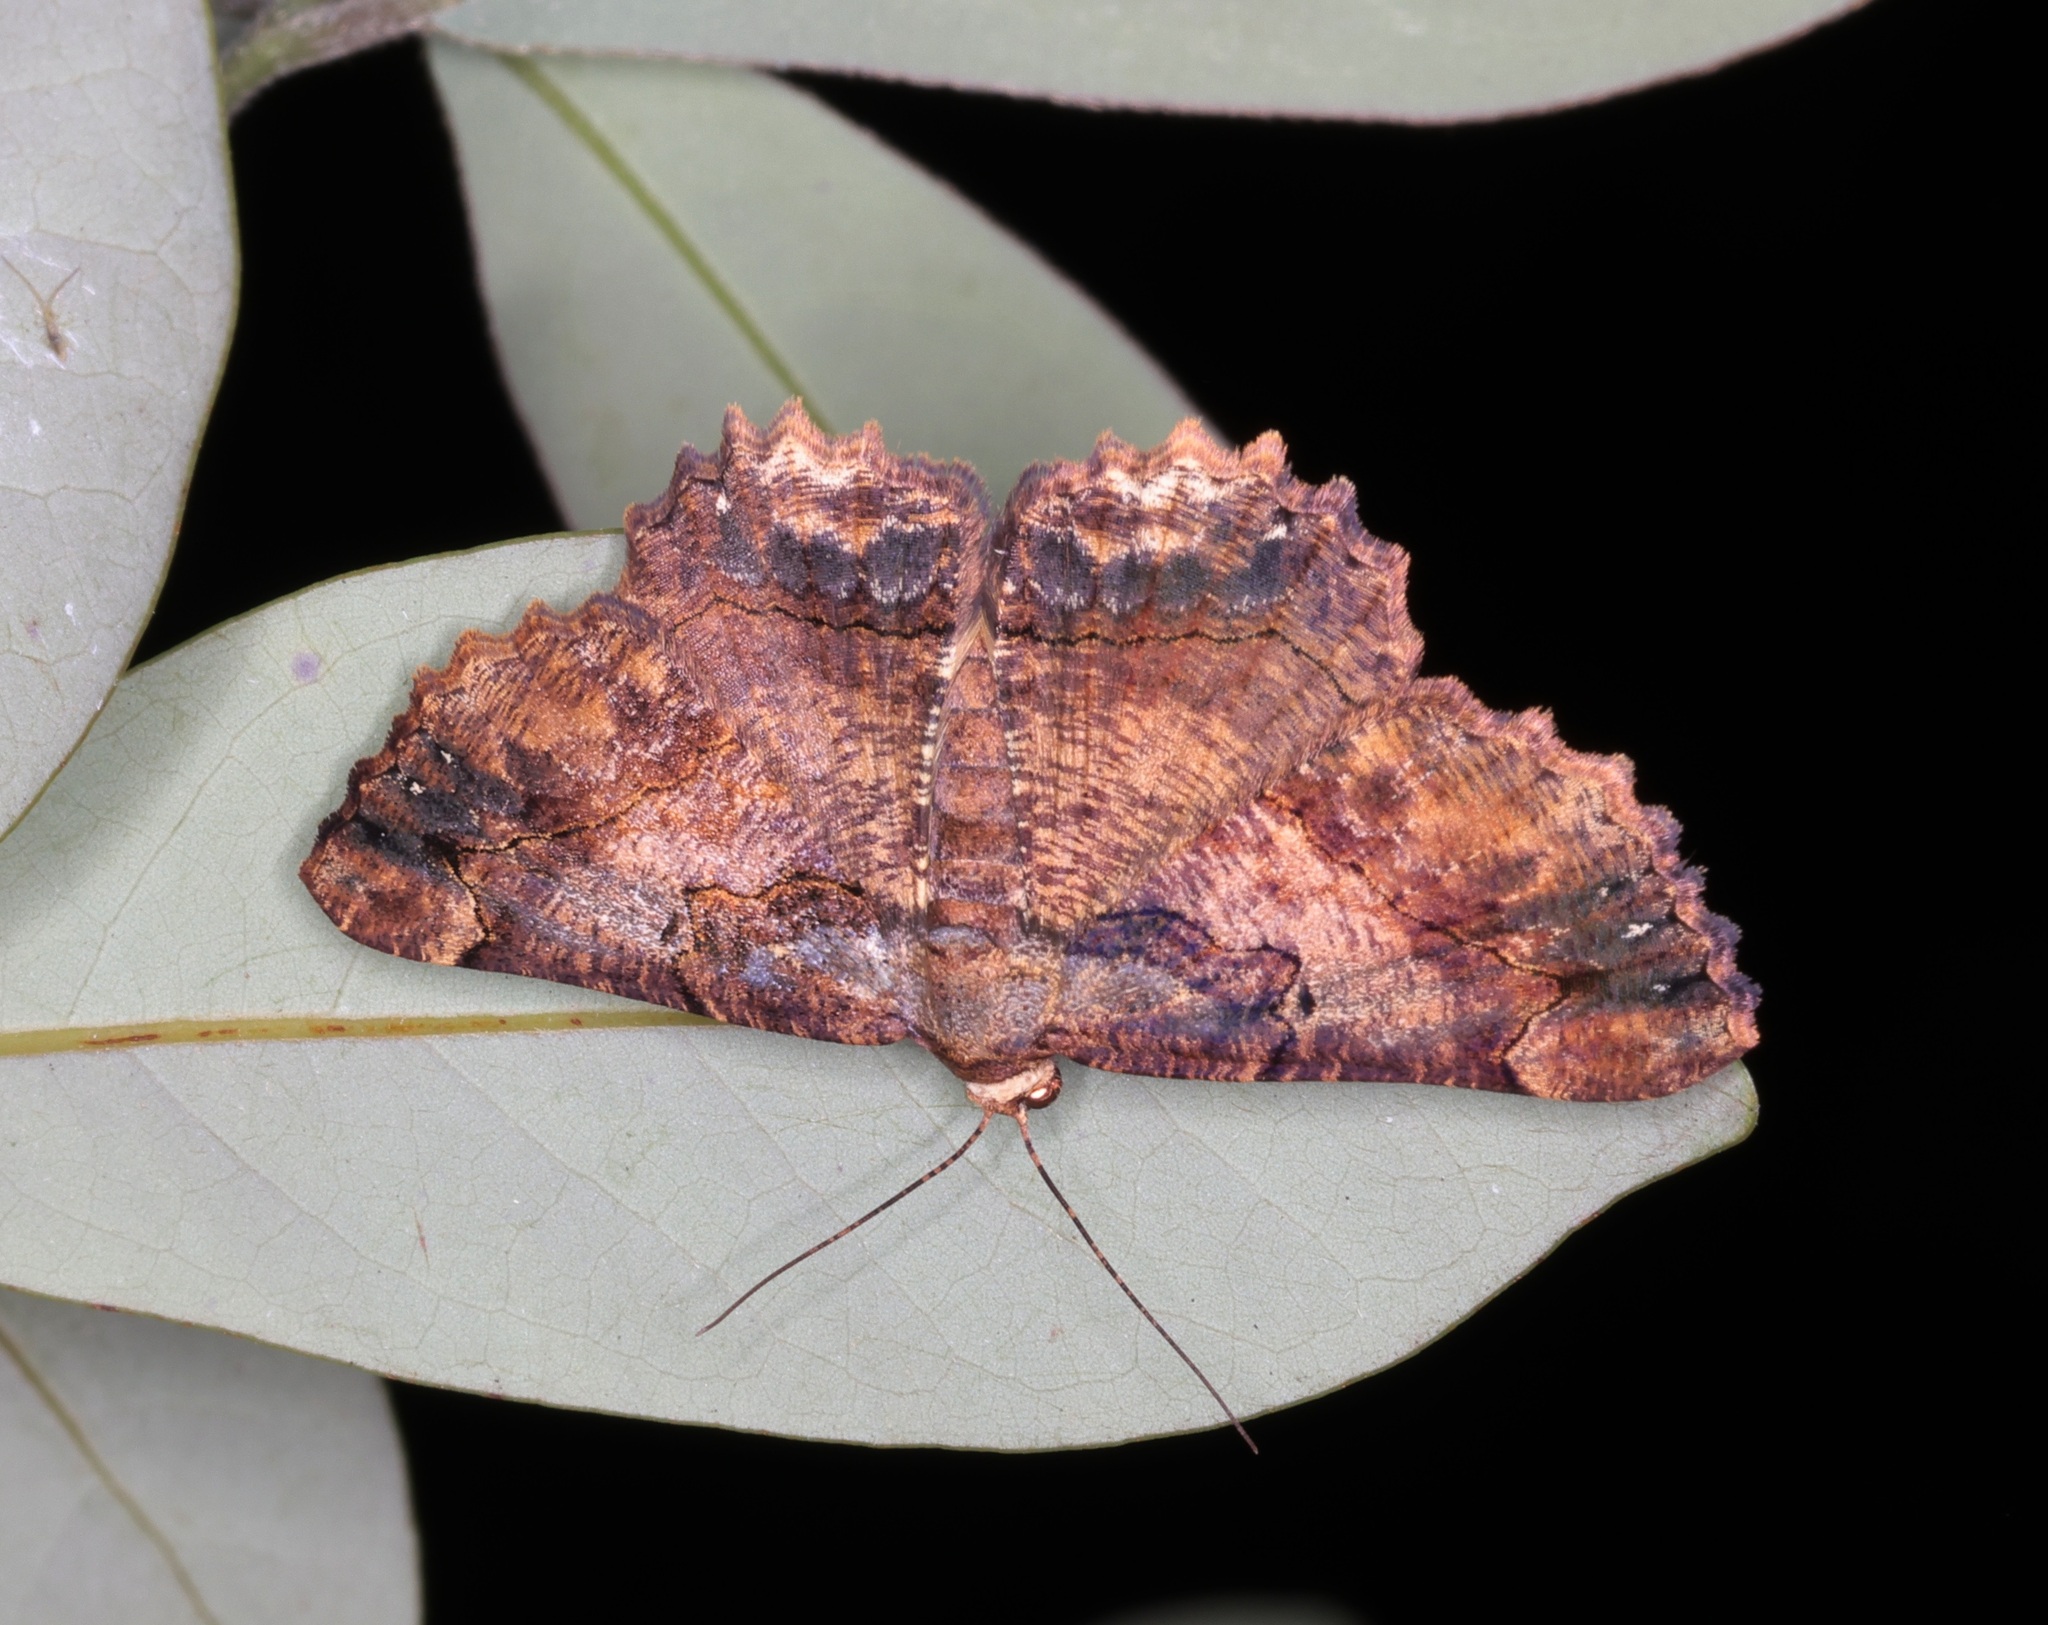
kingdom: Animalia
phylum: Arthropoda
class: Insecta
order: Lepidoptera
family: Geometridae
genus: Dasyboarmia
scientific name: Dasyboarmia subpilosa
